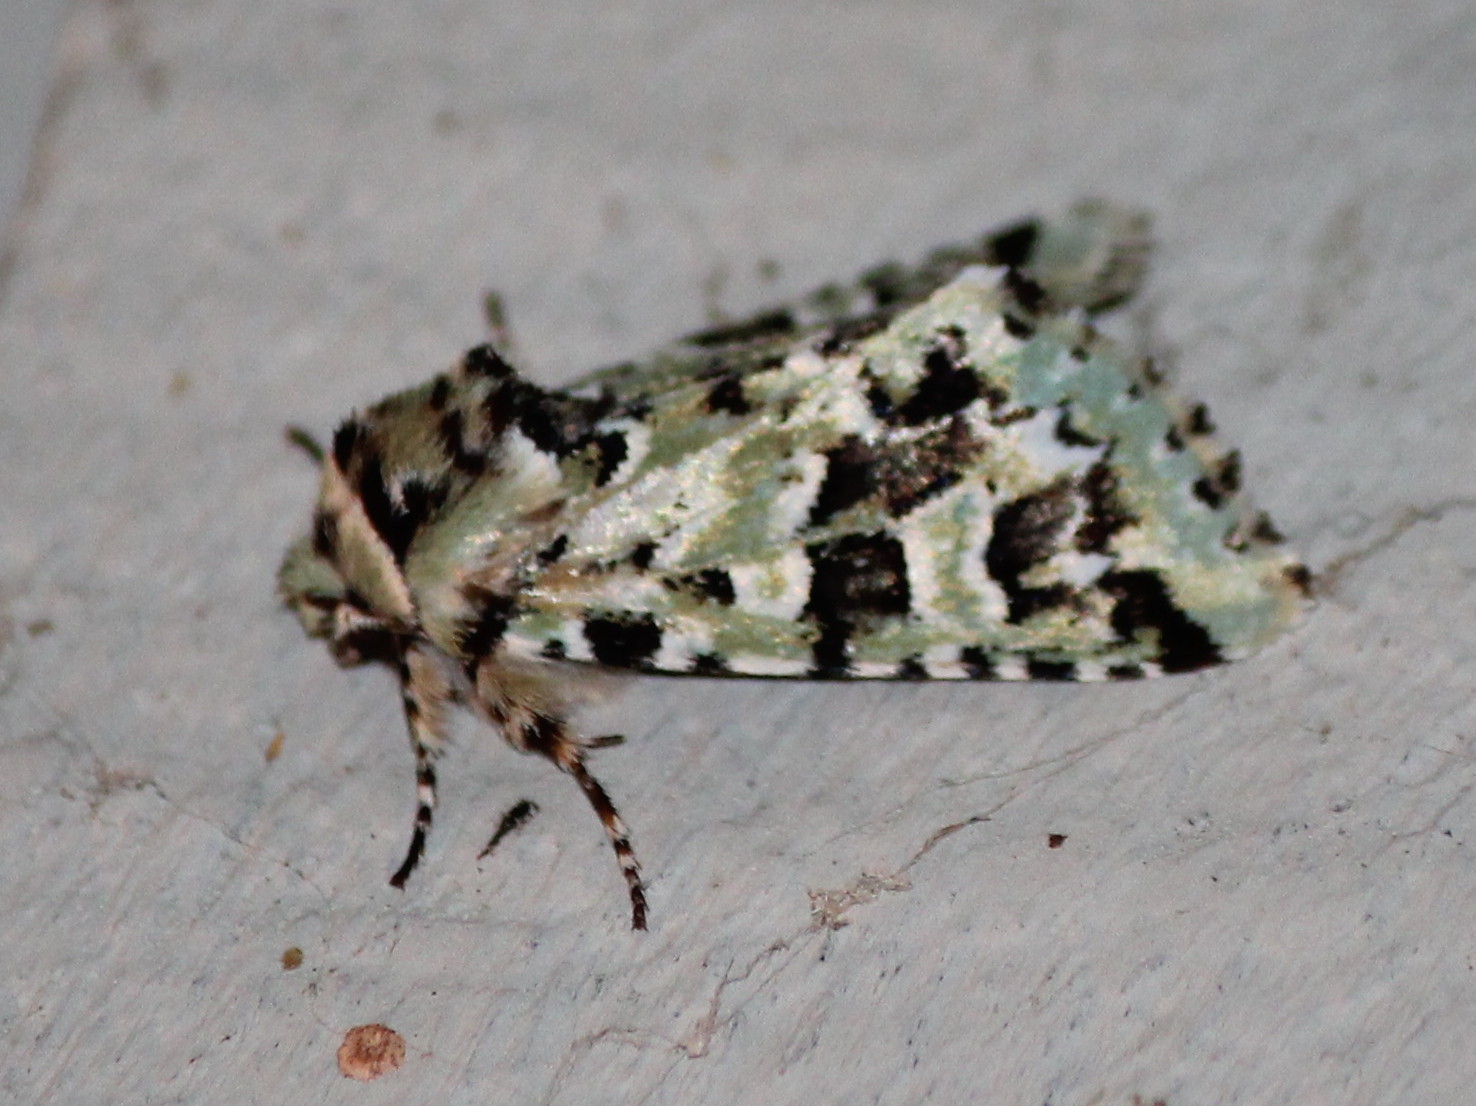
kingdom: Animalia
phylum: Arthropoda
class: Insecta
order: Lepidoptera
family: Noctuidae
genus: Feralia
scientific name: Feralia comstocki
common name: Comstock's sallow
